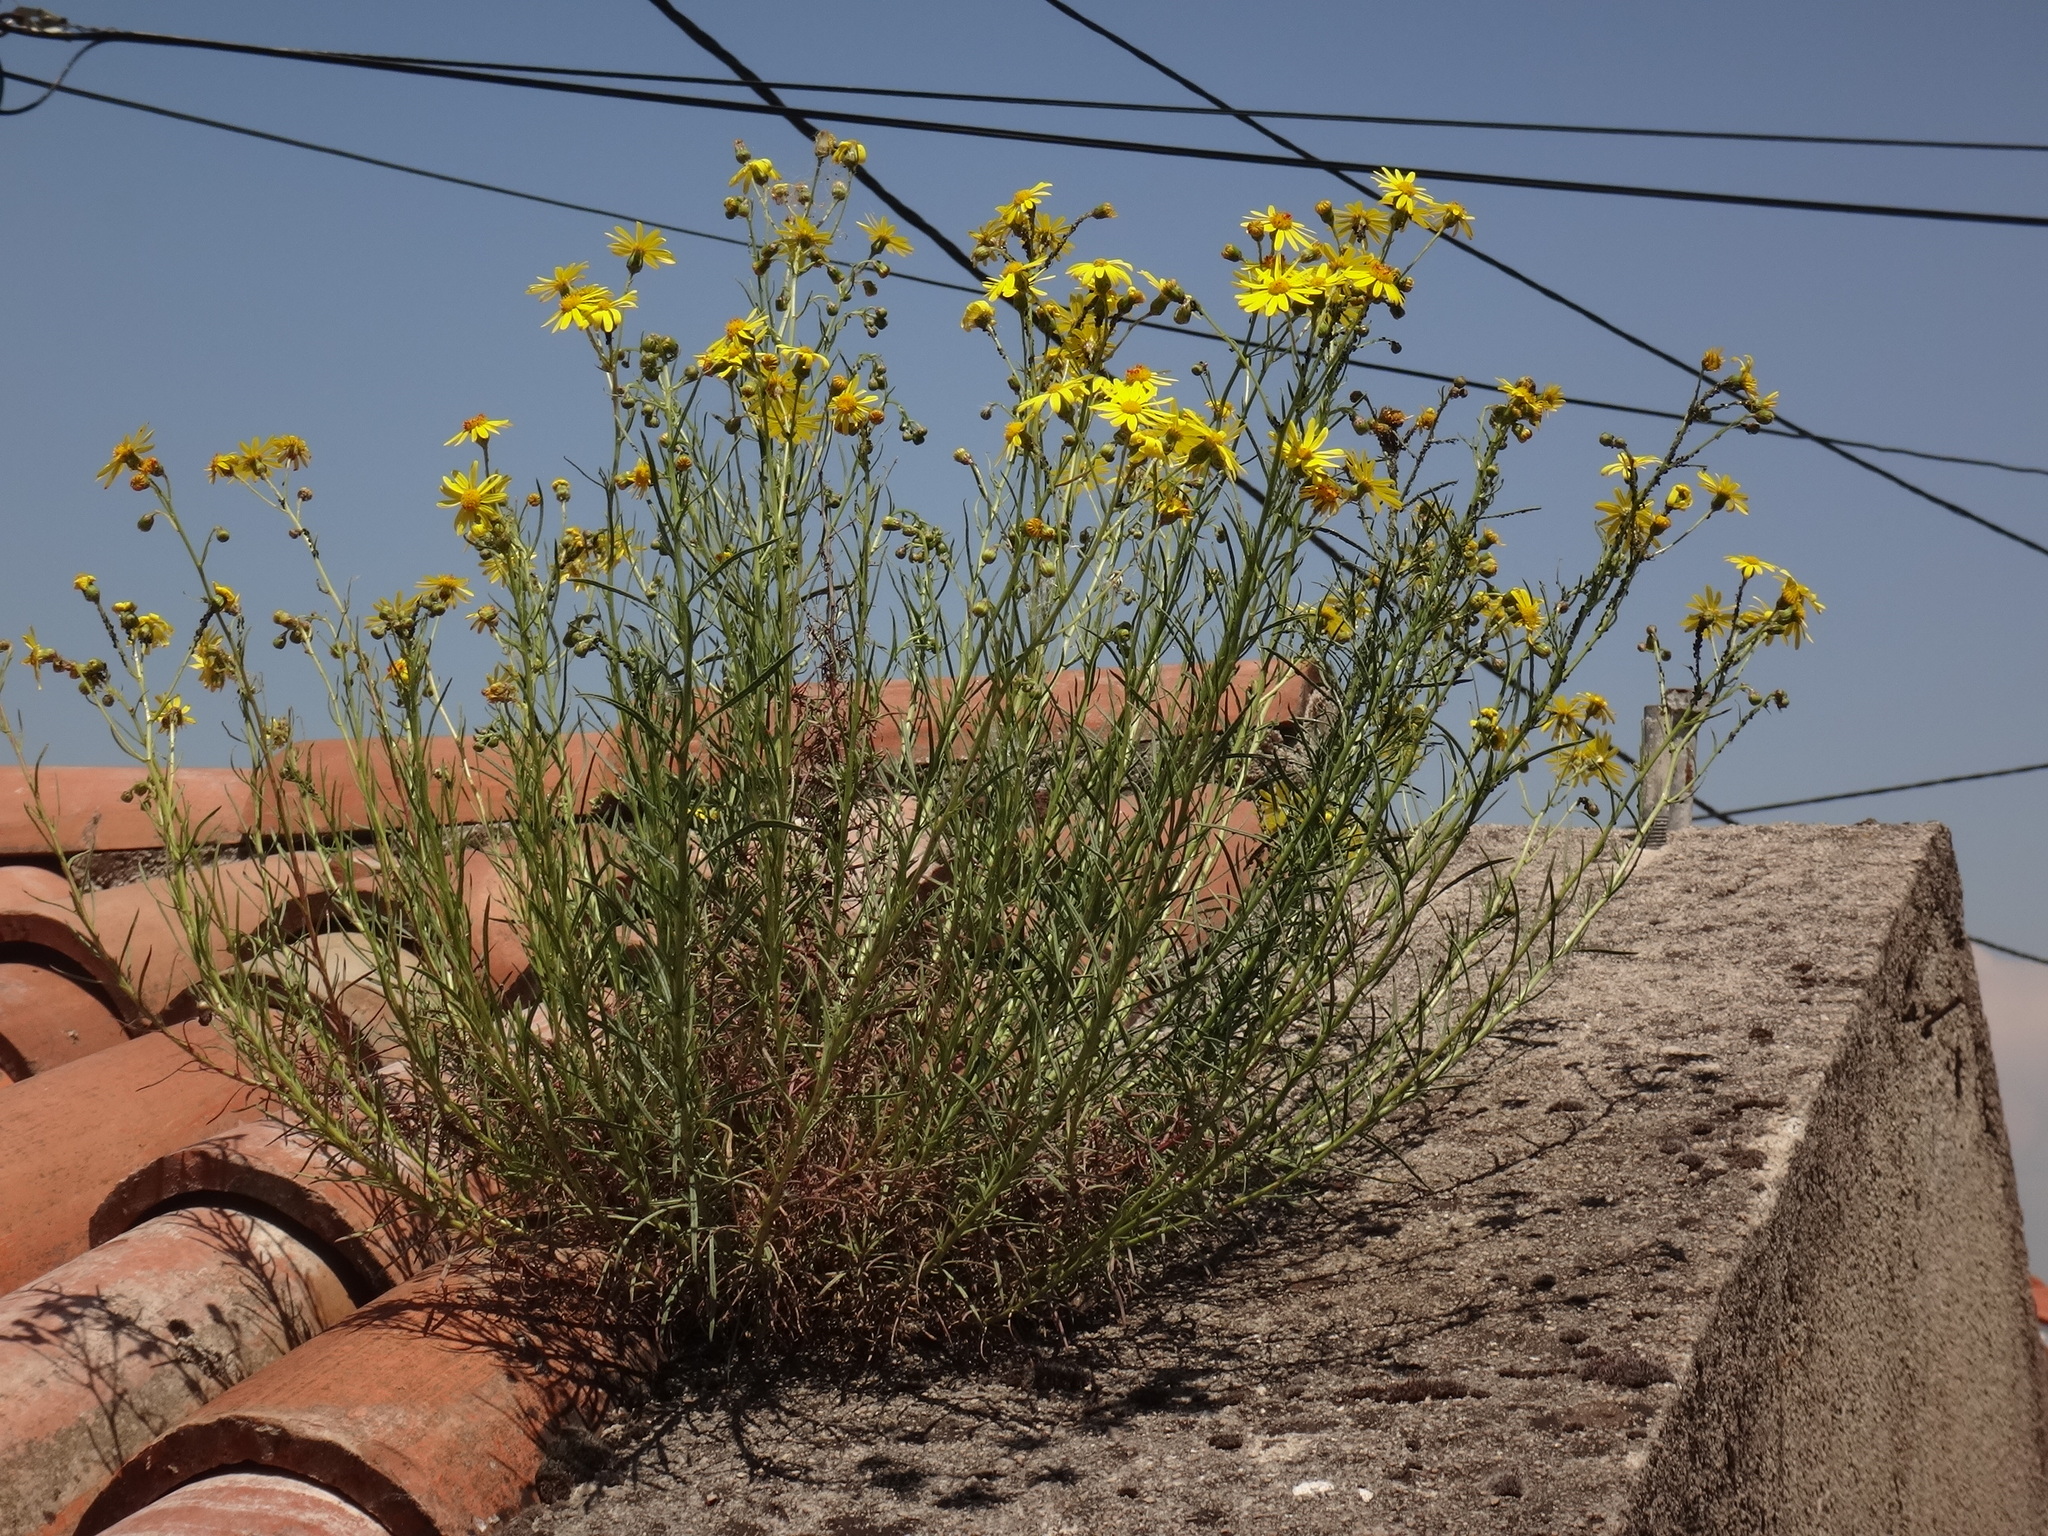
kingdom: Plantae
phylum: Tracheophyta
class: Magnoliopsida
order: Asterales
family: Asteraceae
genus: Senecio
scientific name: Senecio inaequidens
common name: Narrow-leaved ragwort
